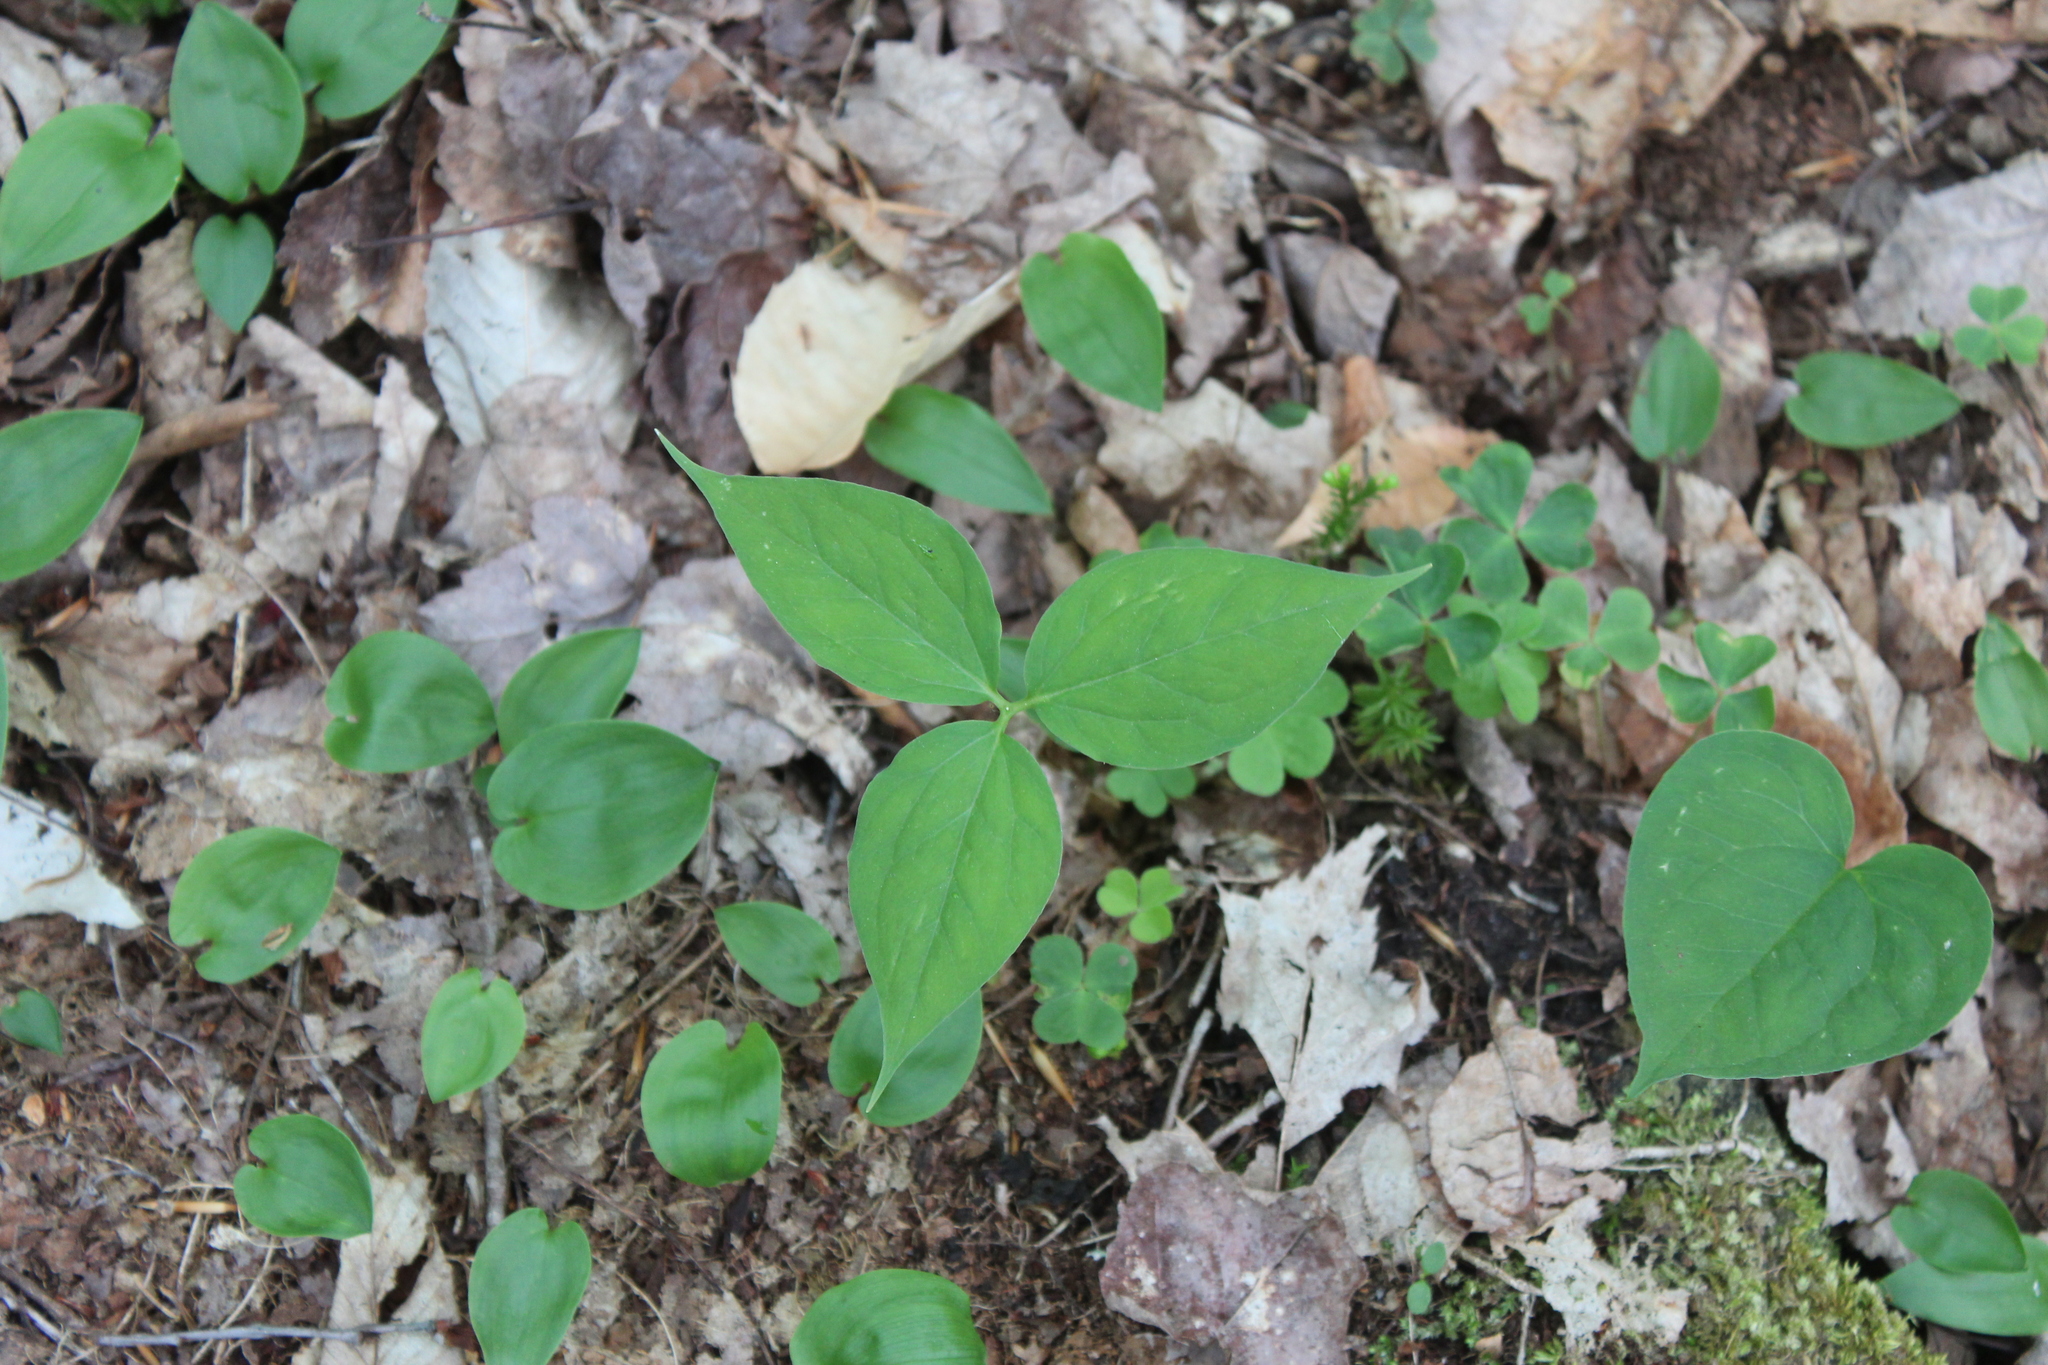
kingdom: Plantae
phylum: Tracheophyta
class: Liliopsida
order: Liliales
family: Melanthiaceae
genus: Trillium
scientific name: Trillium undulatum
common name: Paint trillium
